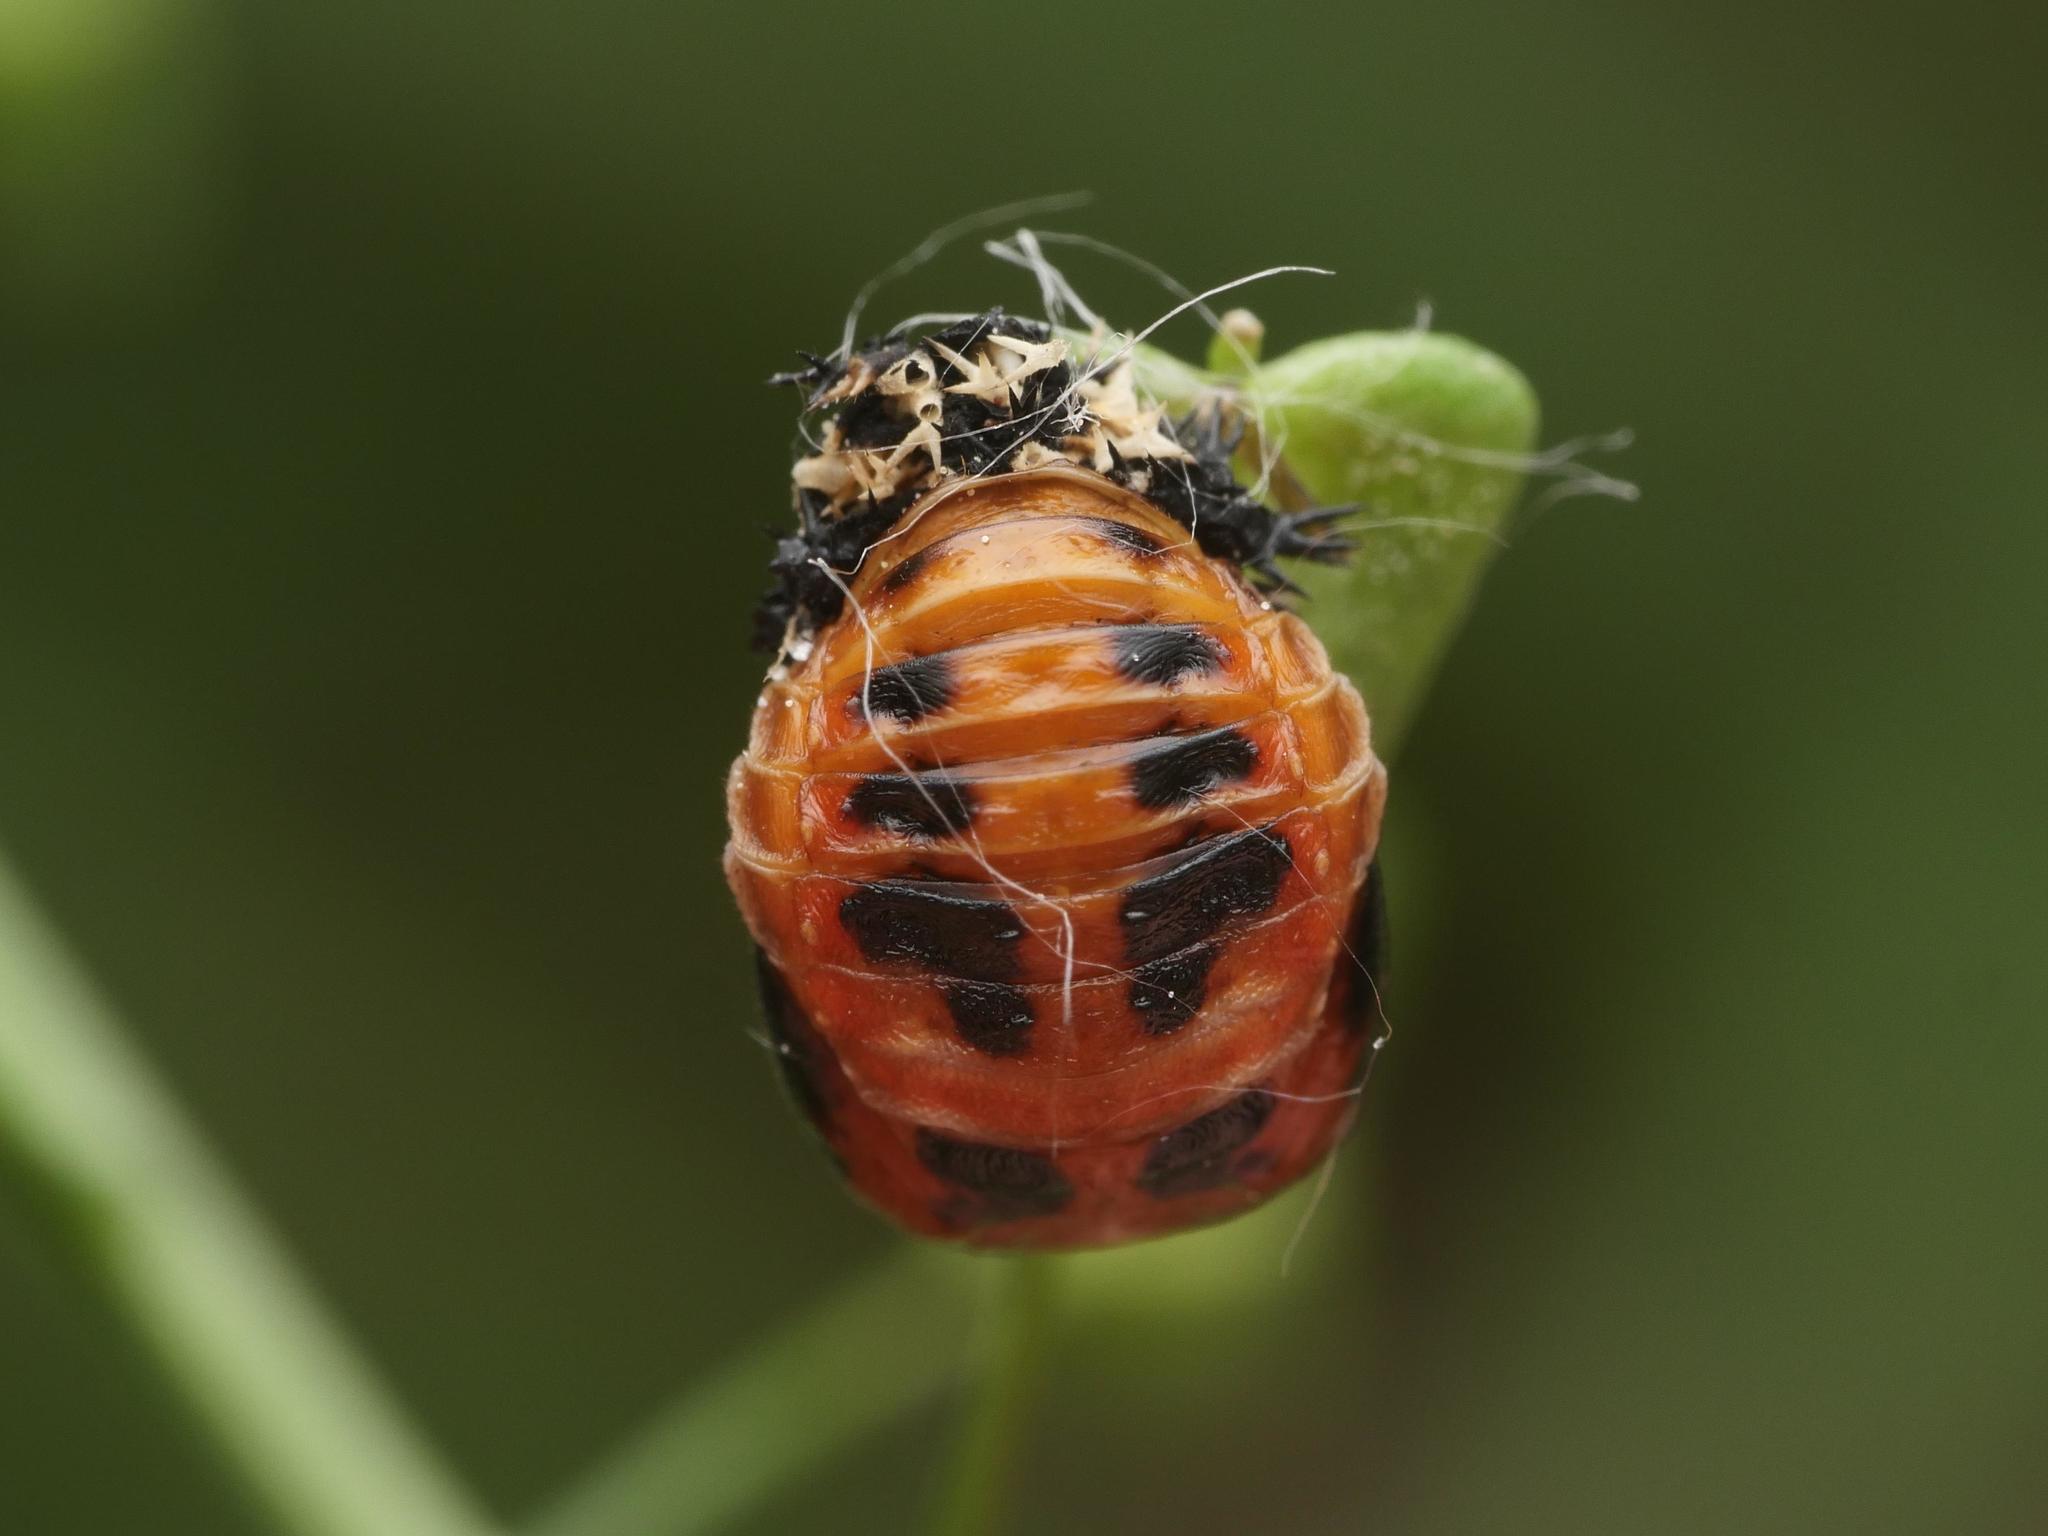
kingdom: Animalia
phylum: Arthropoda
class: Insecta
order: Coleoptera
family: Coccinellidae
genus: Harmonia
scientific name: Harmonia axyridis
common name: Harlequin ladybird
